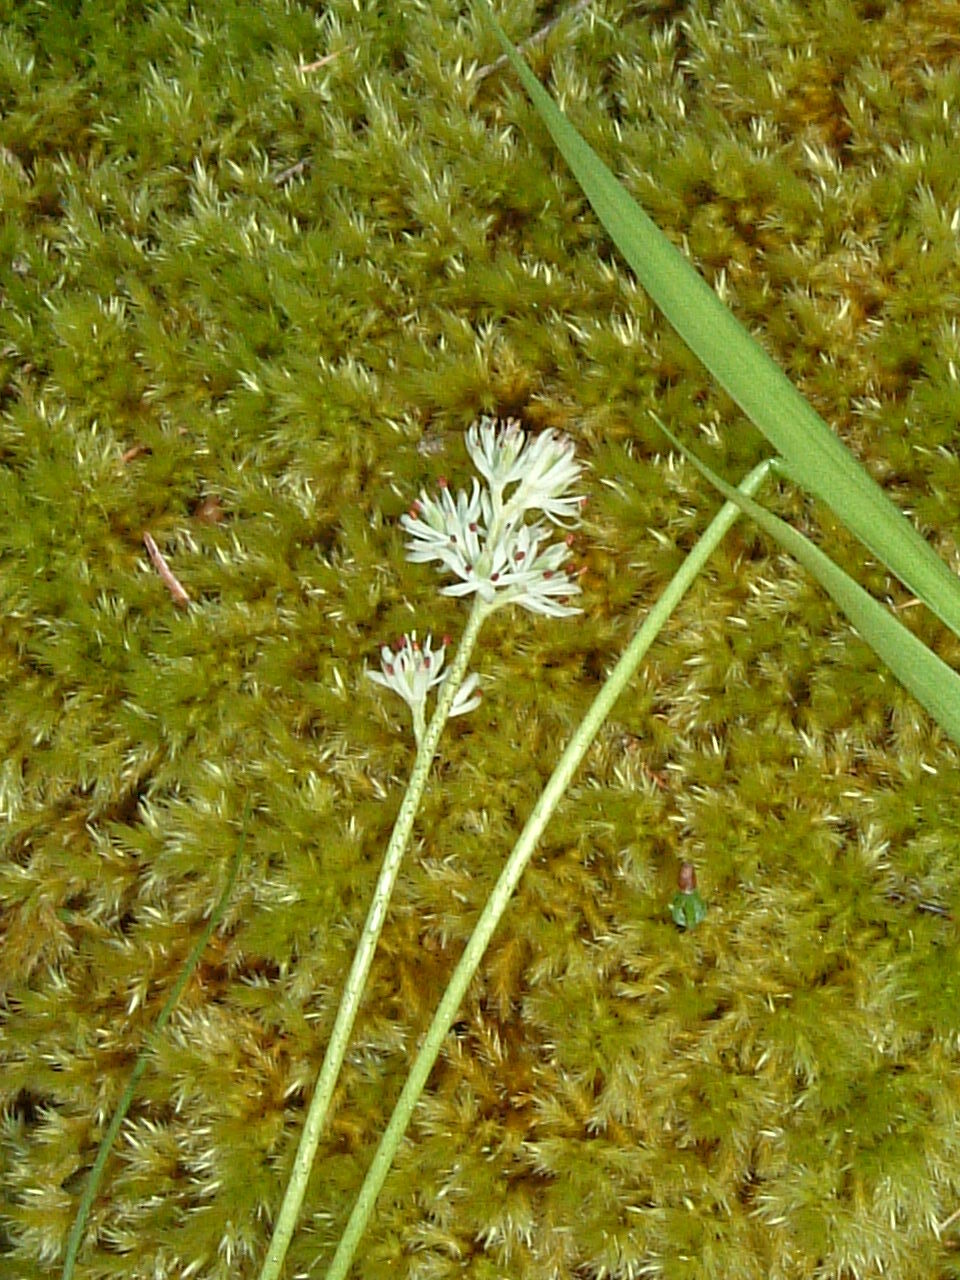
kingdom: Plantae
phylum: Tracheophyta
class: Liliopsida
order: Alismatales
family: Tofieldiaceae
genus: Triantha
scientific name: Triantha glutinosa
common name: Glutinous tofieldia
